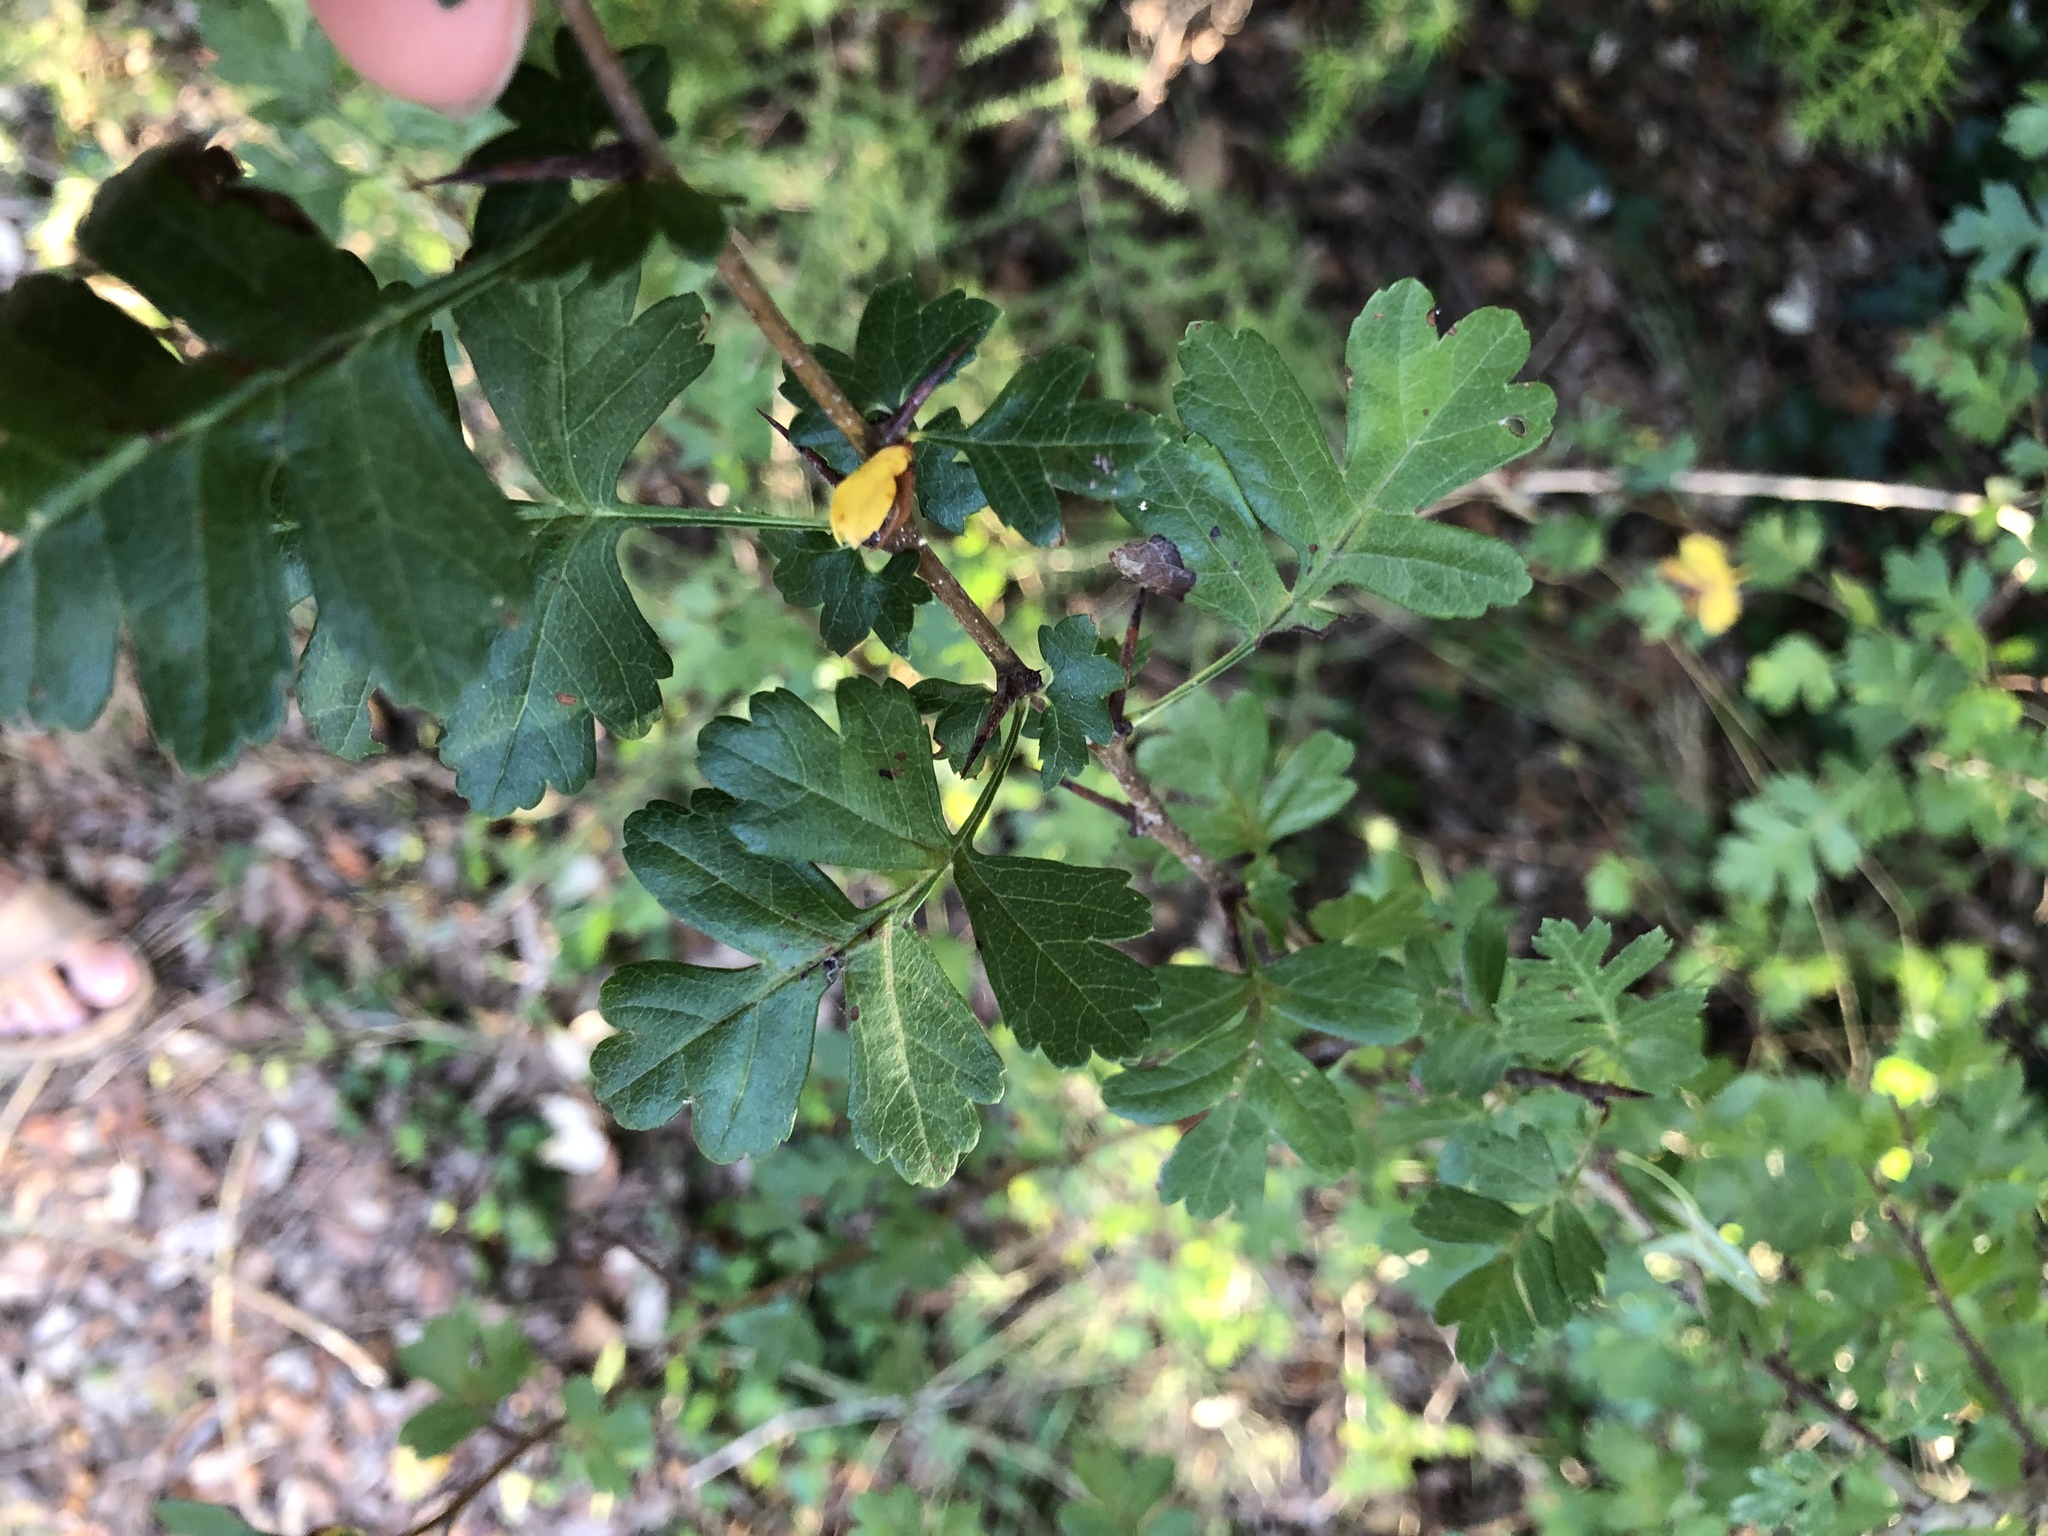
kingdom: Plantae
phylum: Tracheophyta
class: Magnoliopsida
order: Rosales
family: Rosaceae
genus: Crataegus
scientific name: Crataegus monogyna
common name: Hawthorn
